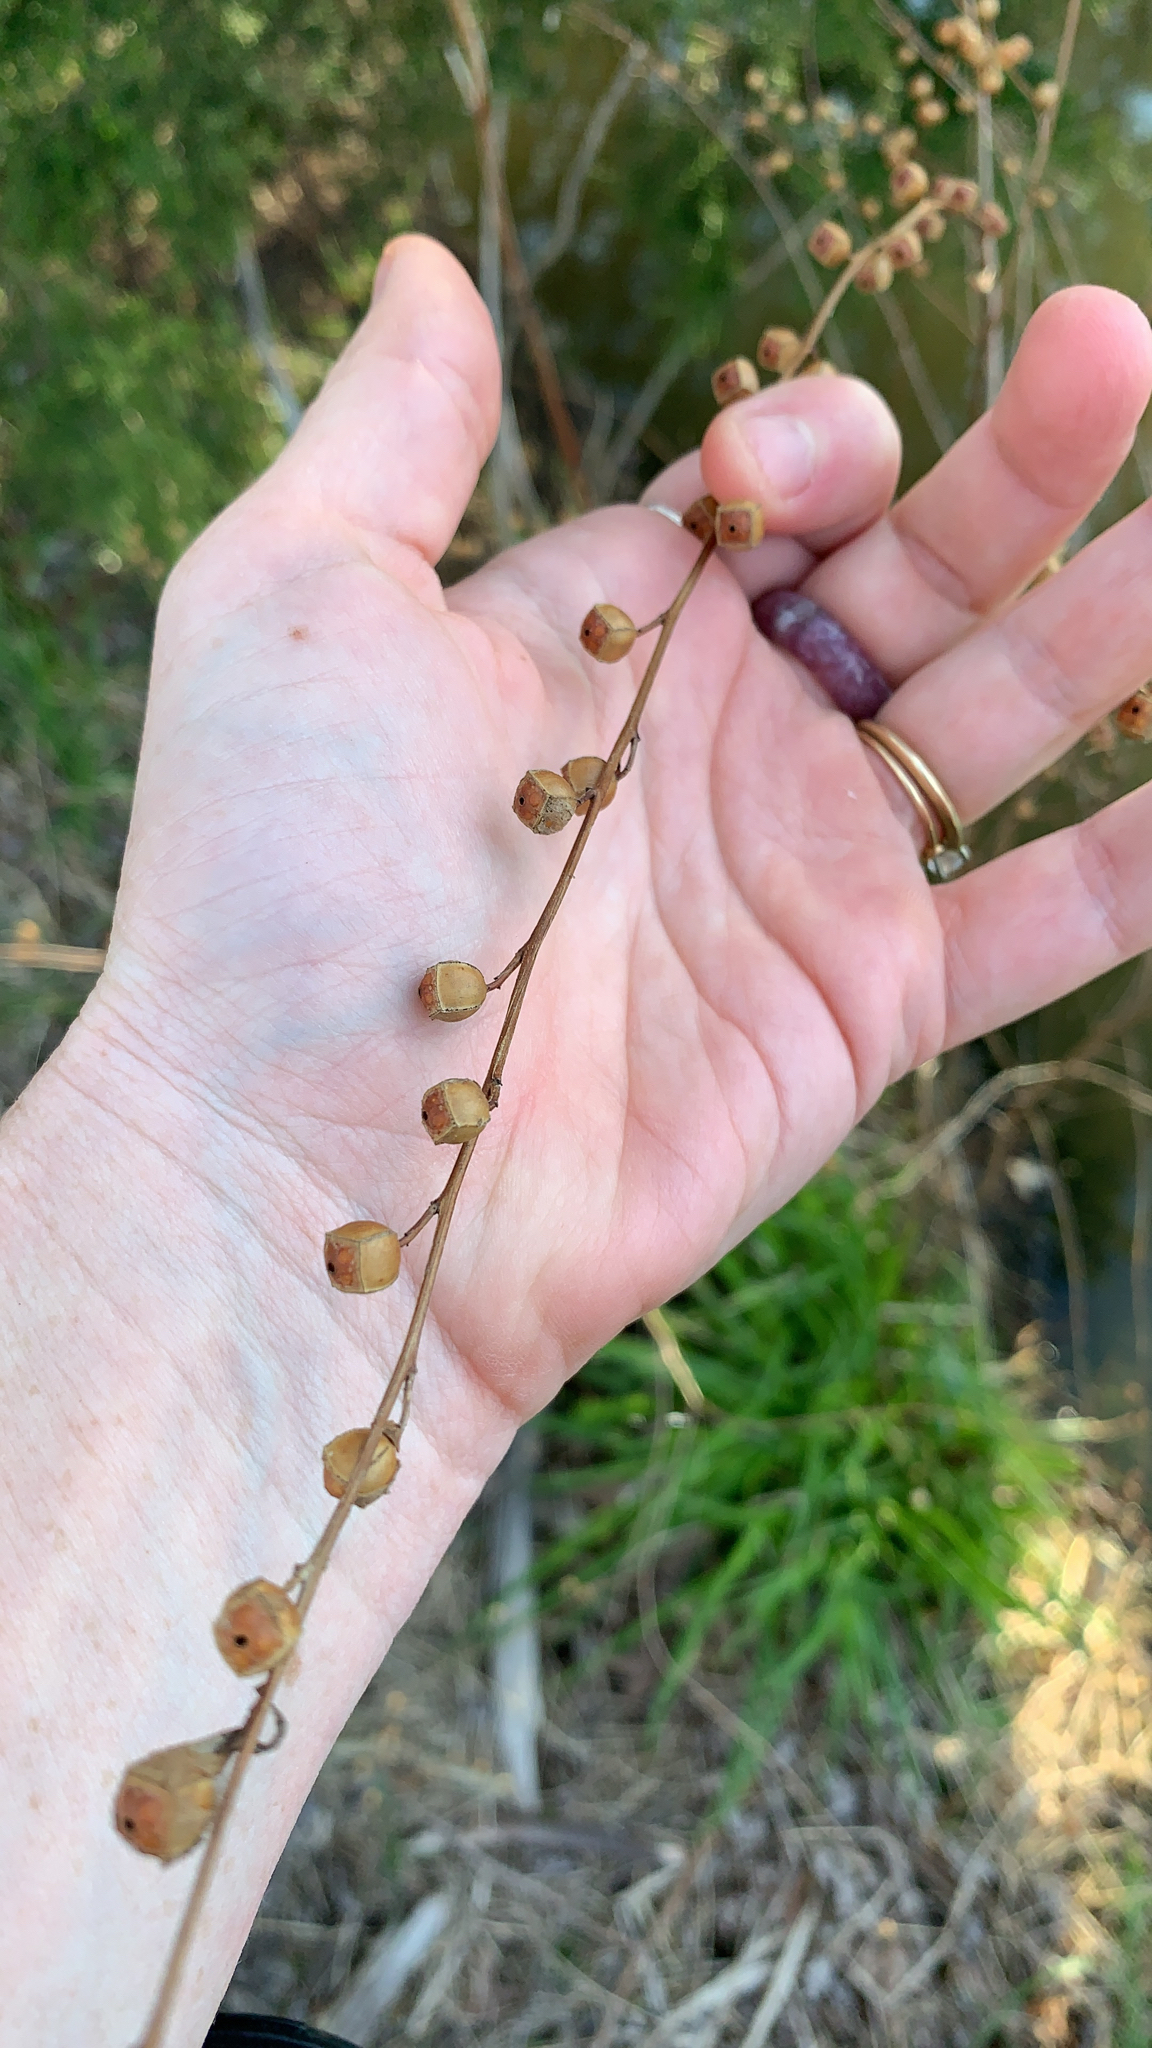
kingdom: Plantae
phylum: Tracheophyta
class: Magnoliopsida
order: Myrtales
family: Onagraceae
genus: Ludwigia
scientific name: Ludwigia alternifolia
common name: Rattlebox
